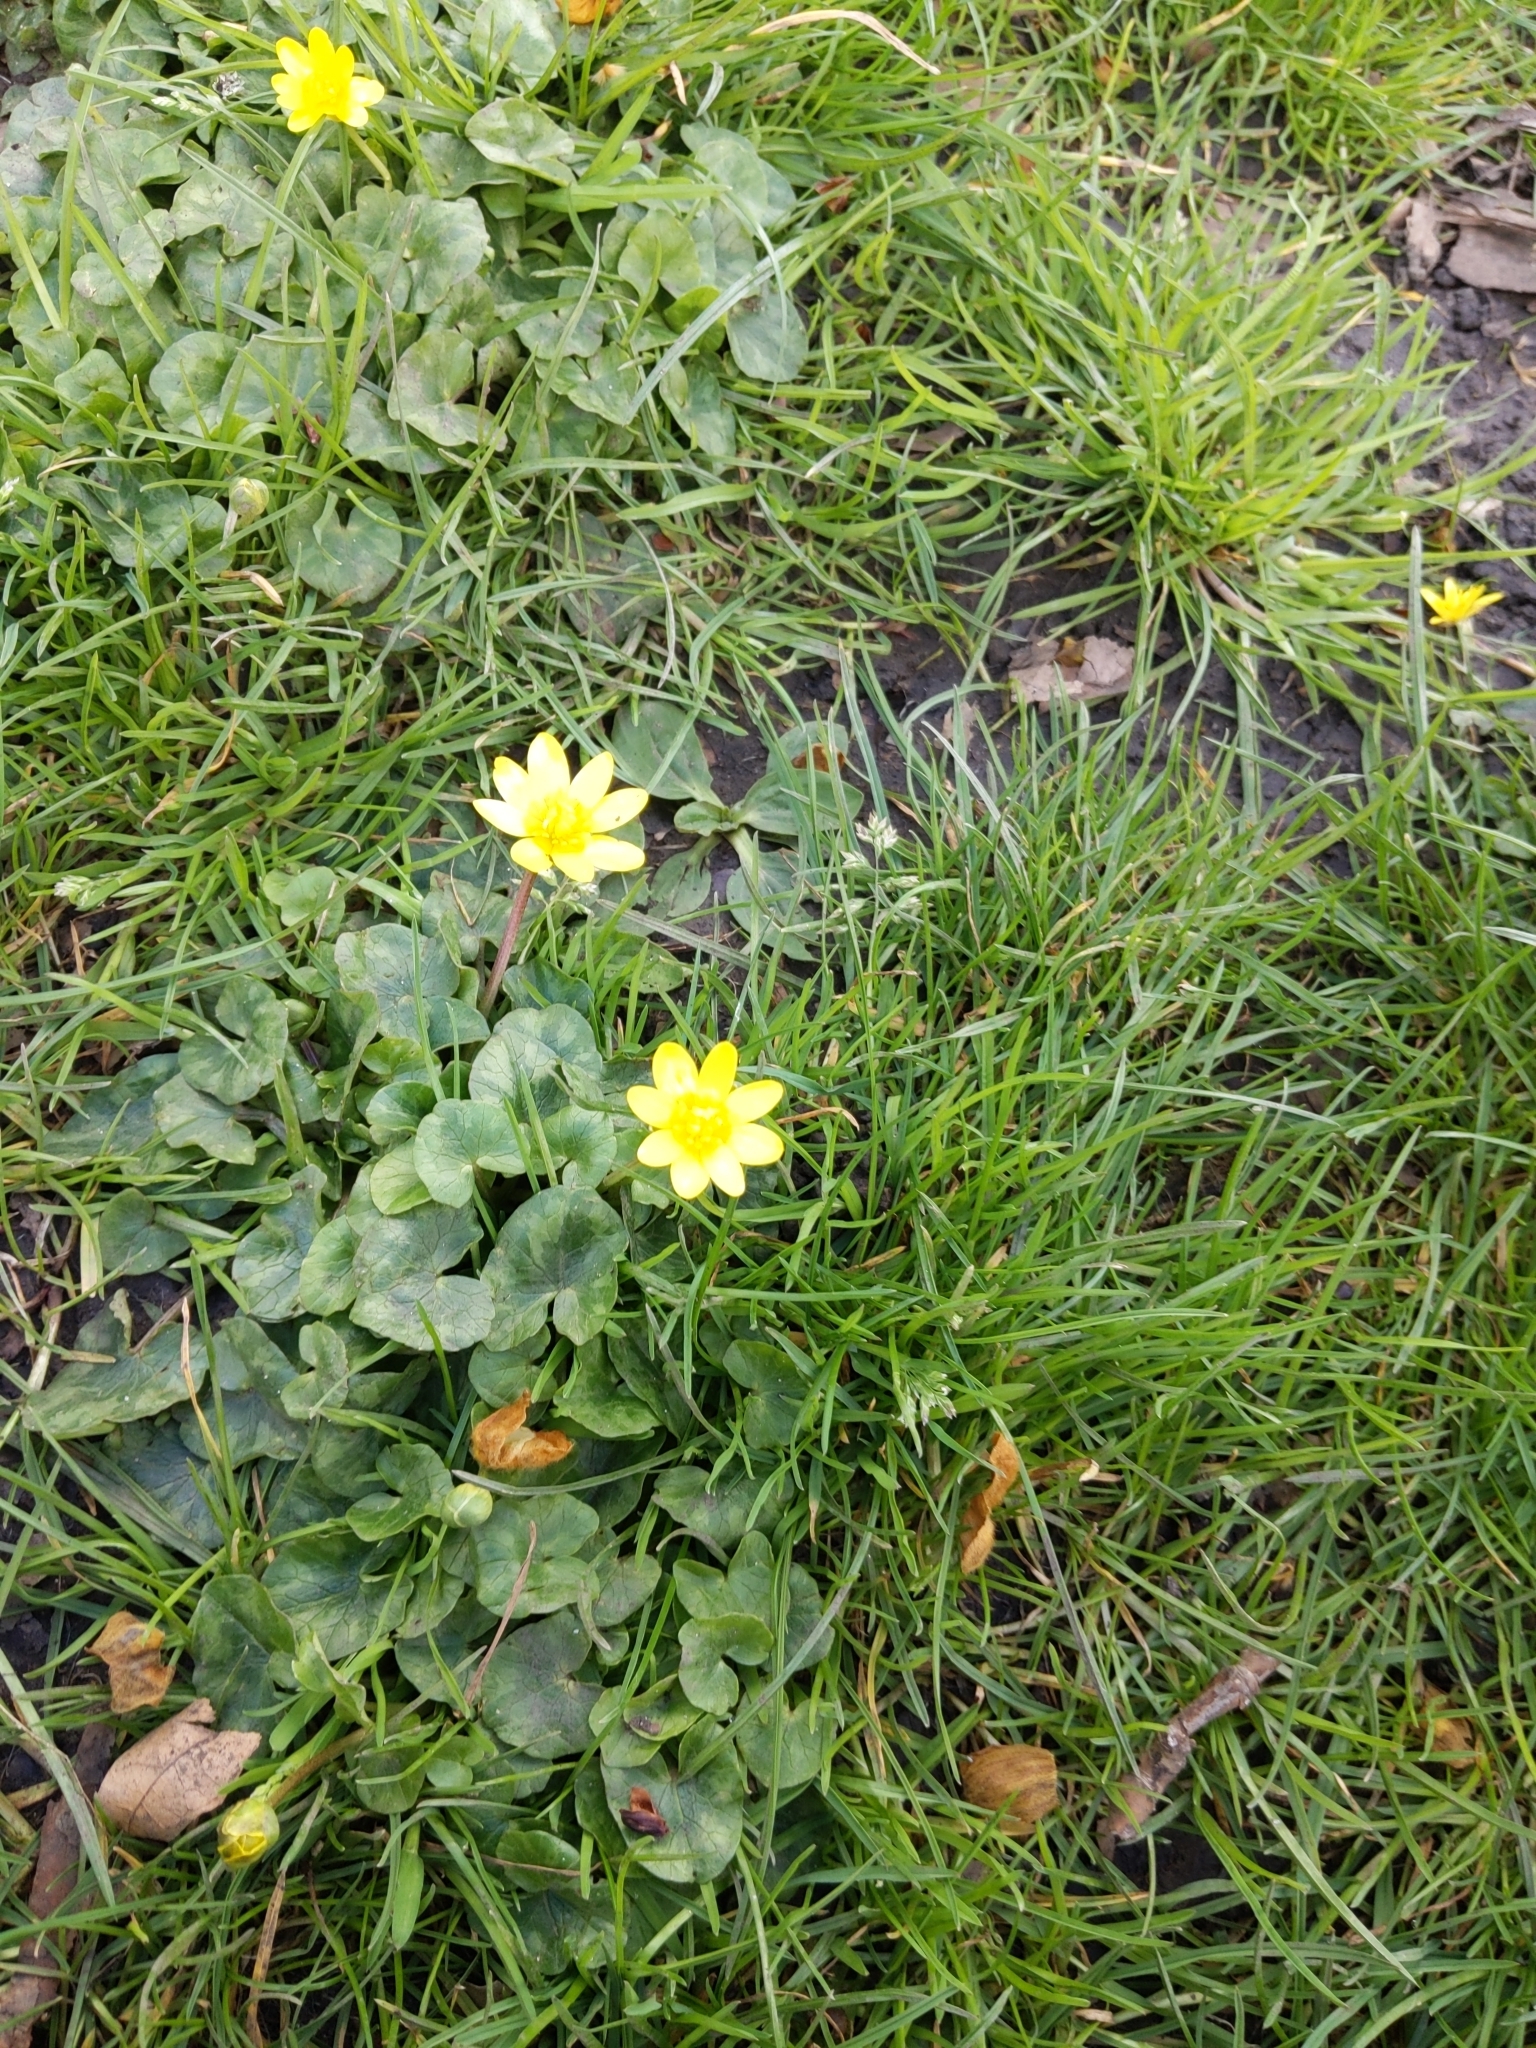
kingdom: Plantae
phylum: Tracheophyta
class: Magnoliopsida
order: Ranunculales
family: Ranunculaceae
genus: Ficaria
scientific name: Ficaria verna
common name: Lesser celandine
